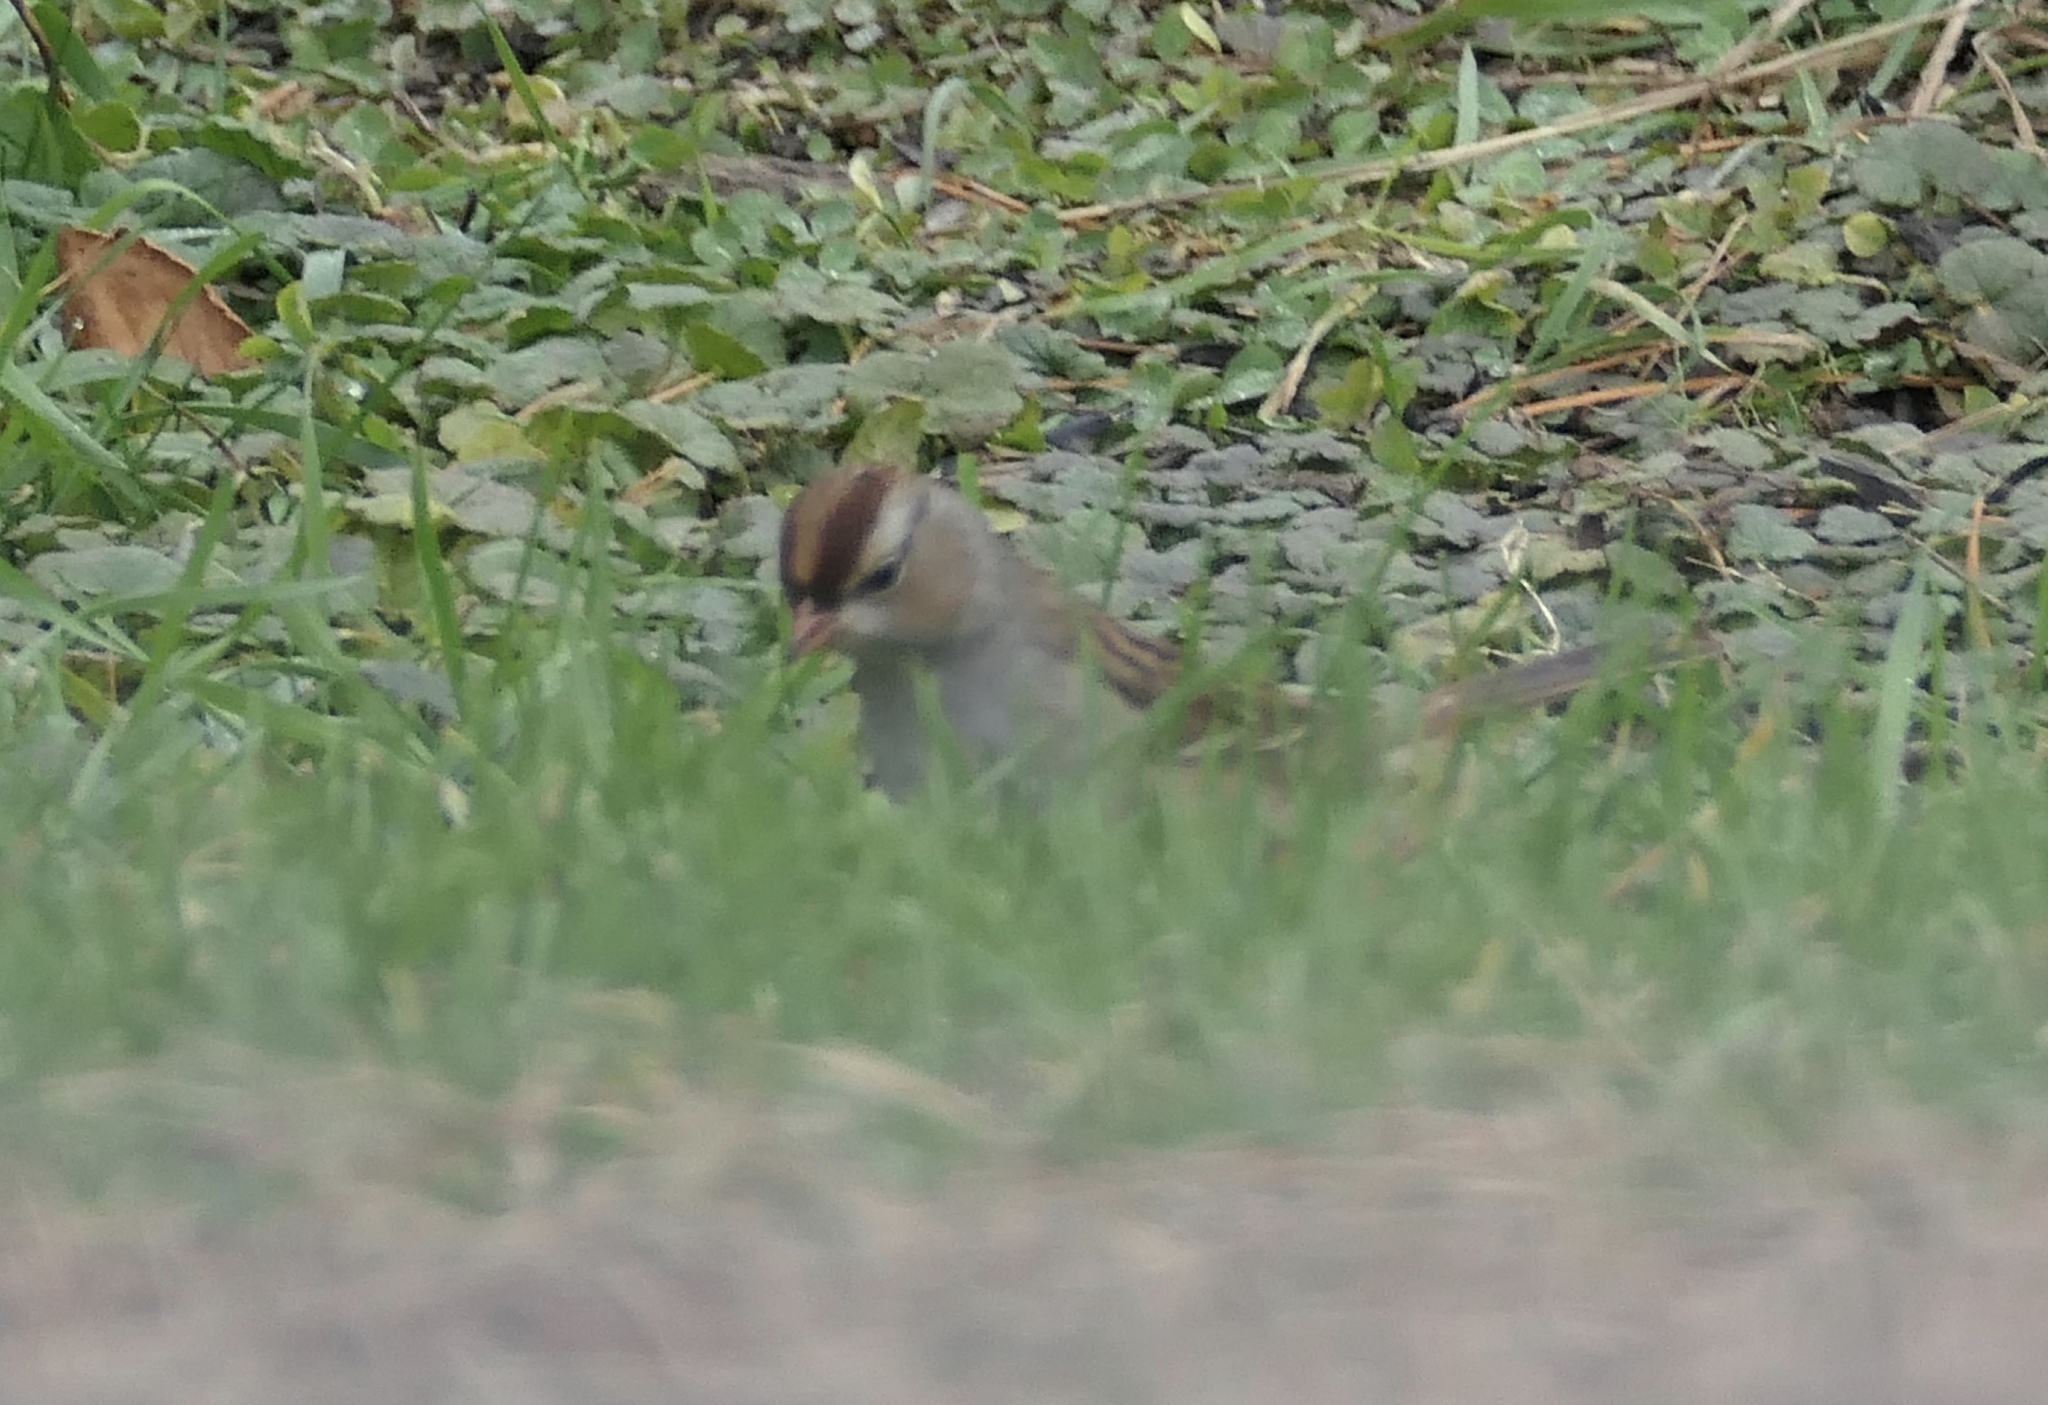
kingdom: Animalia
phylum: Chordata
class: Aves
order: Passeriformes
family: Passerellidae
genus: Zonotrichia
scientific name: Zonotrichia leucophrys
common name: White-crowned sparrow
